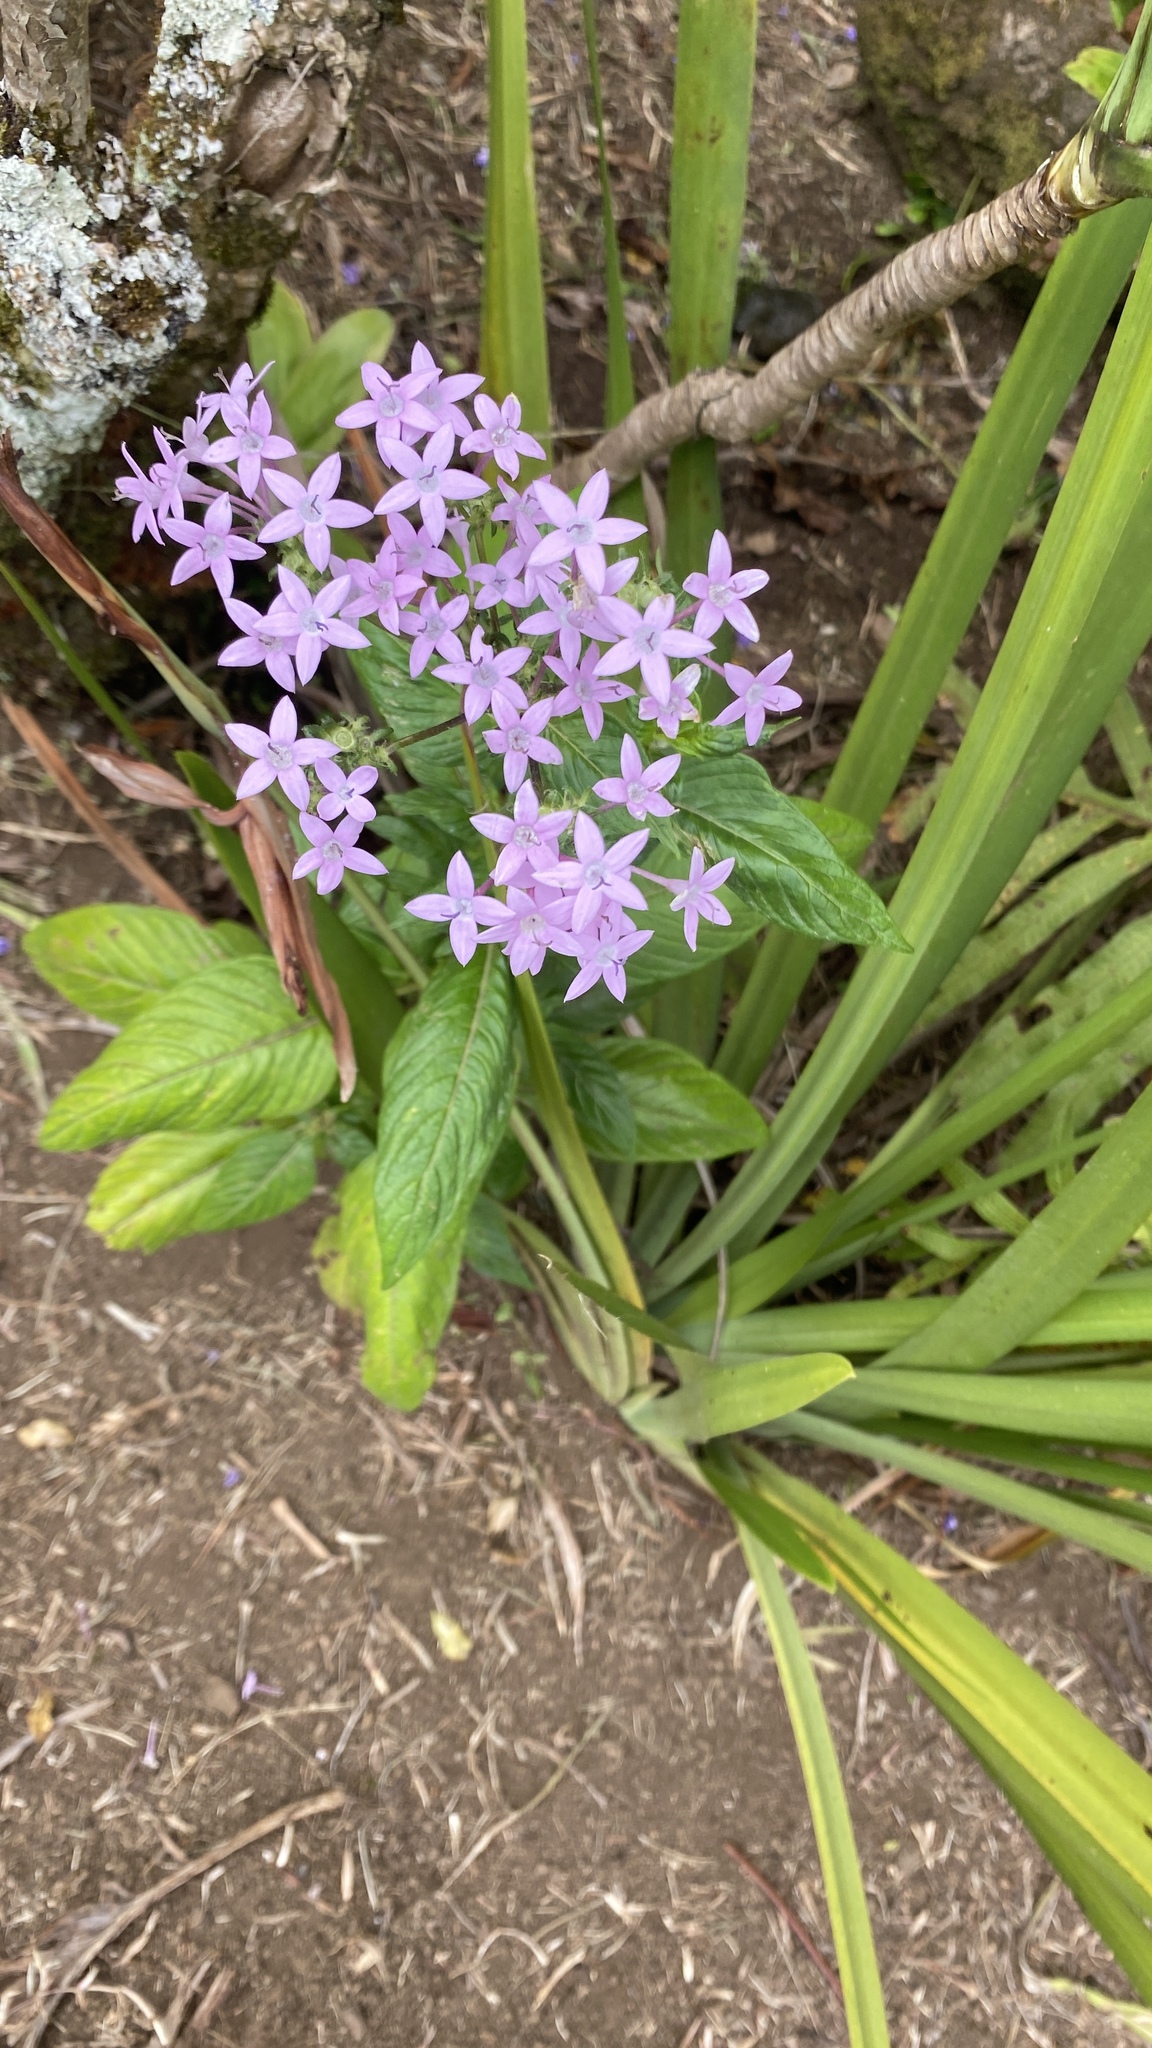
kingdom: Plantae
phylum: Tracheophyta
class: Magnoliopsida
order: Gentianales
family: Rubiaceae
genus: Pentas
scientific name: Pentas lanceolata
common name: Egyptian starcluster
